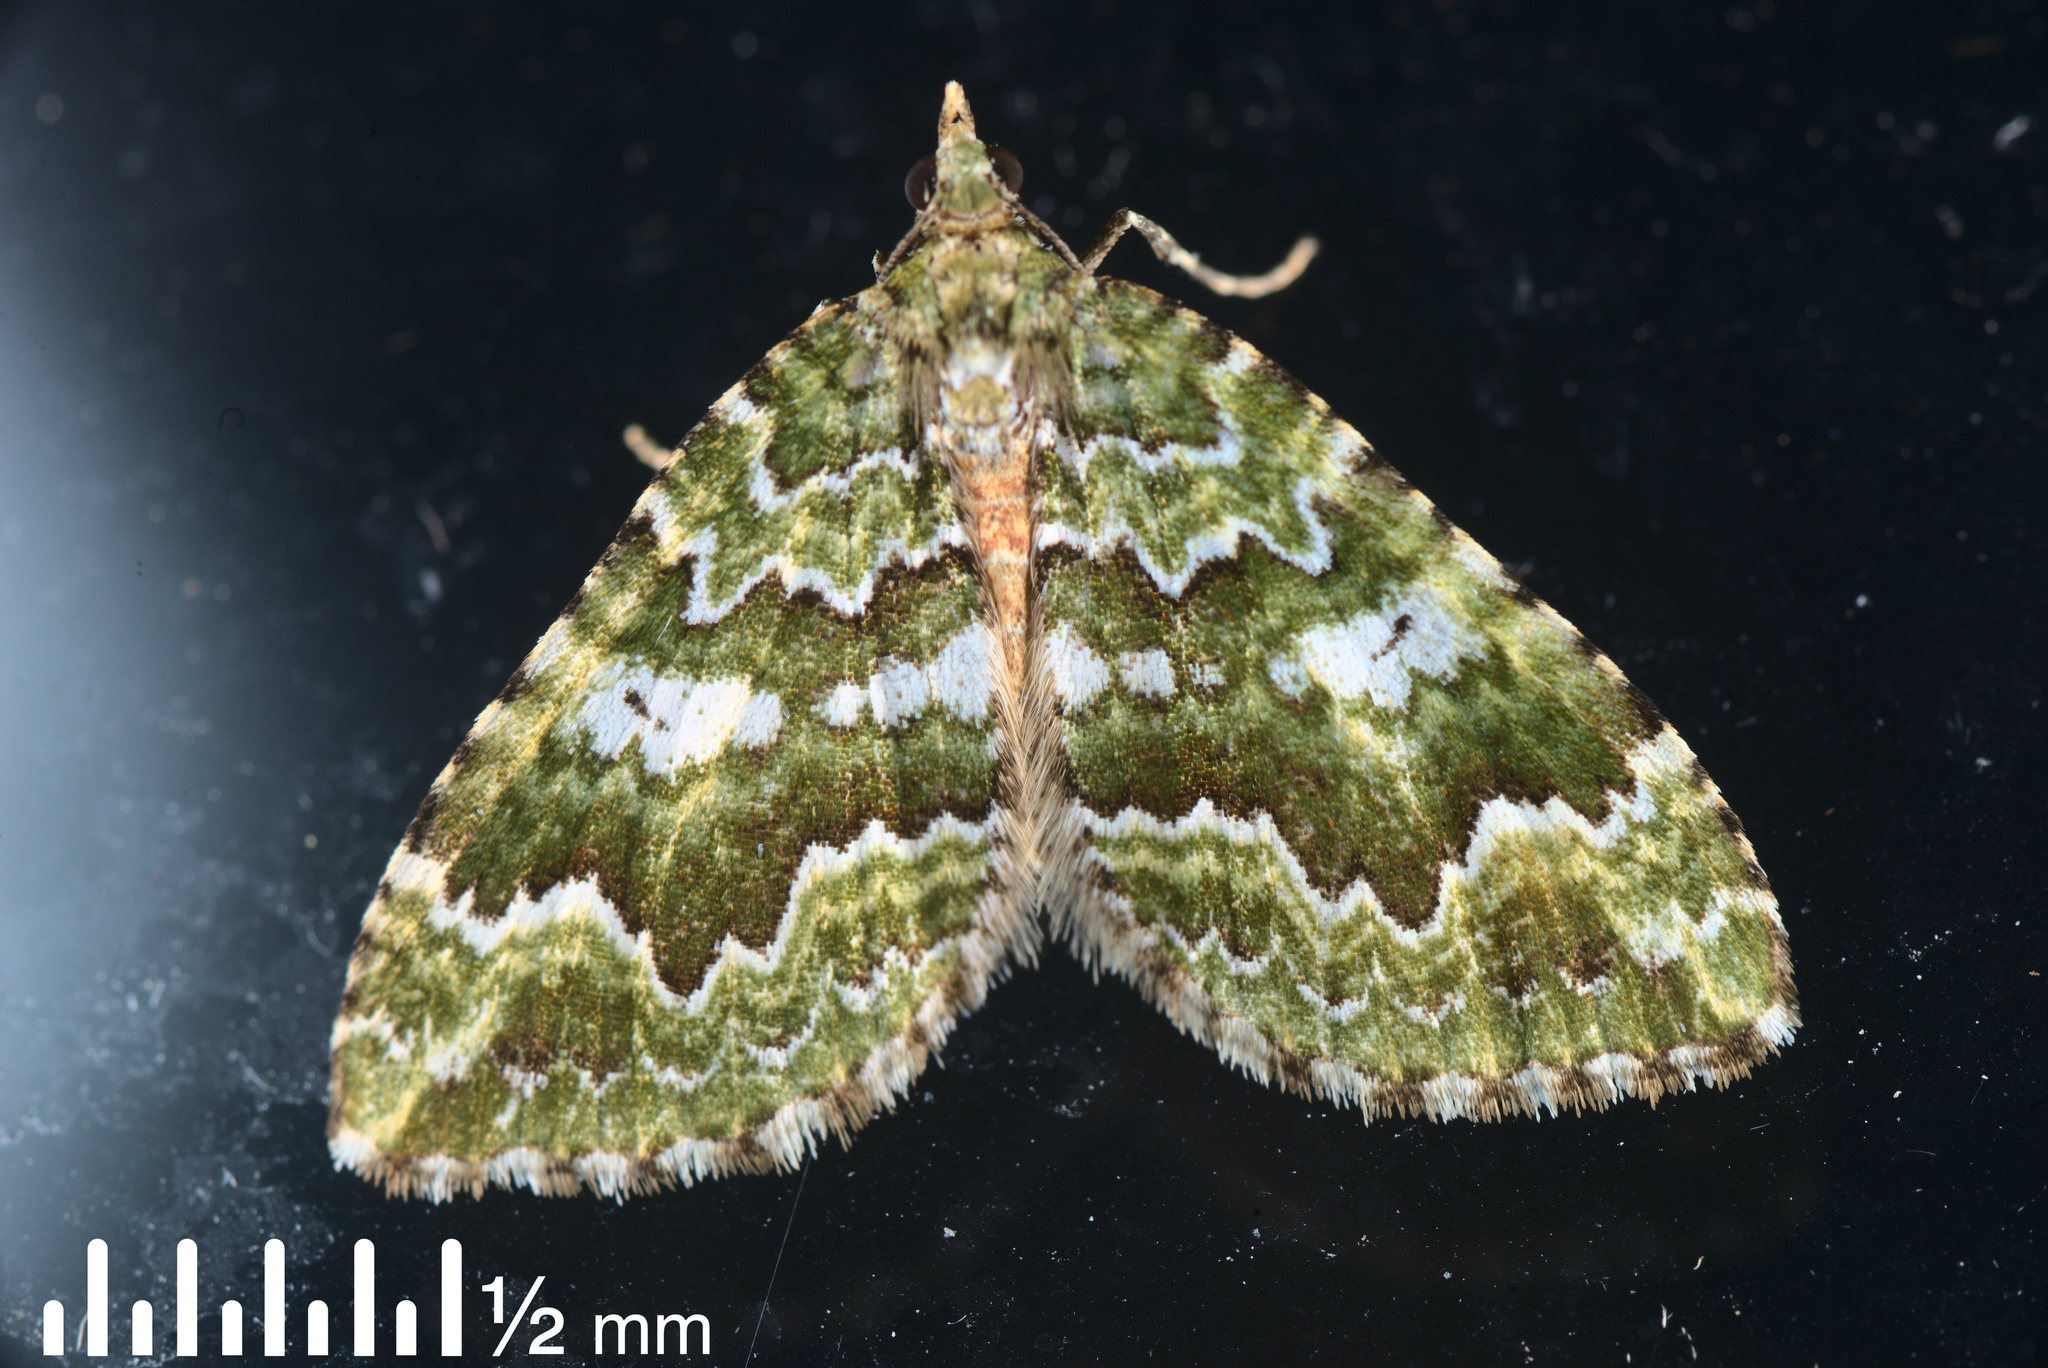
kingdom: Animalia
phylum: Arthropoda
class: Insecta
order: Lepidoptera
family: Geometridae
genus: Asaphodes
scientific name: Asaphodes beata
